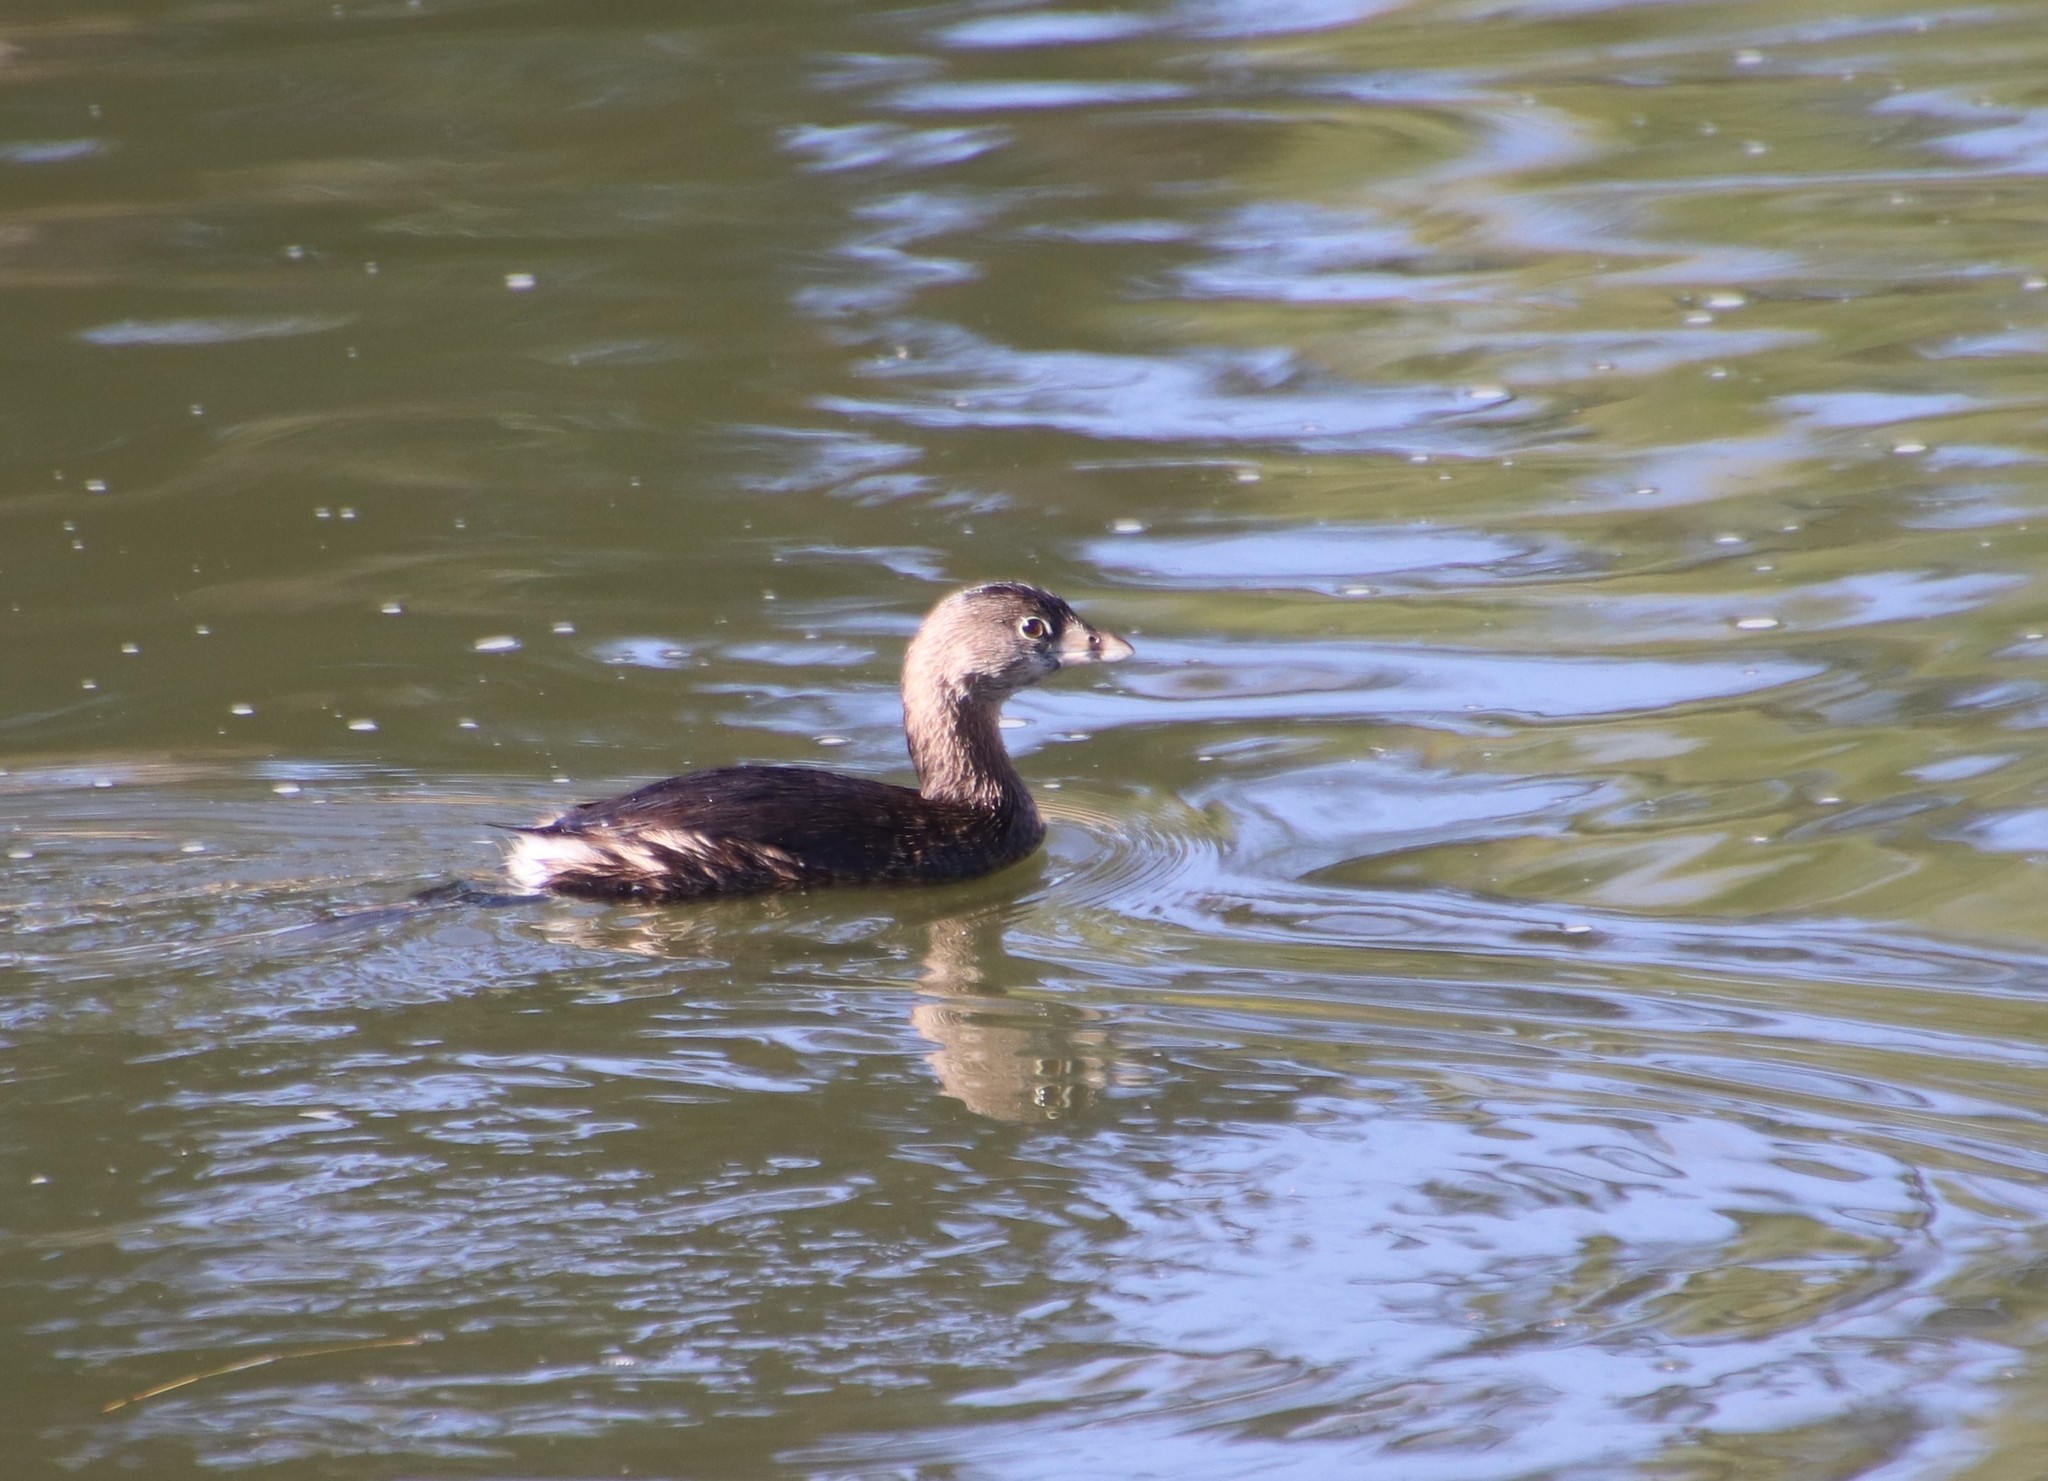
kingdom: Animalia
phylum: Chordata
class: Aves
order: Podicipediformes
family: Podicipedidae
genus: Podilymbus
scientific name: Podilymbus podiceps
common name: Pied-billed grebe
